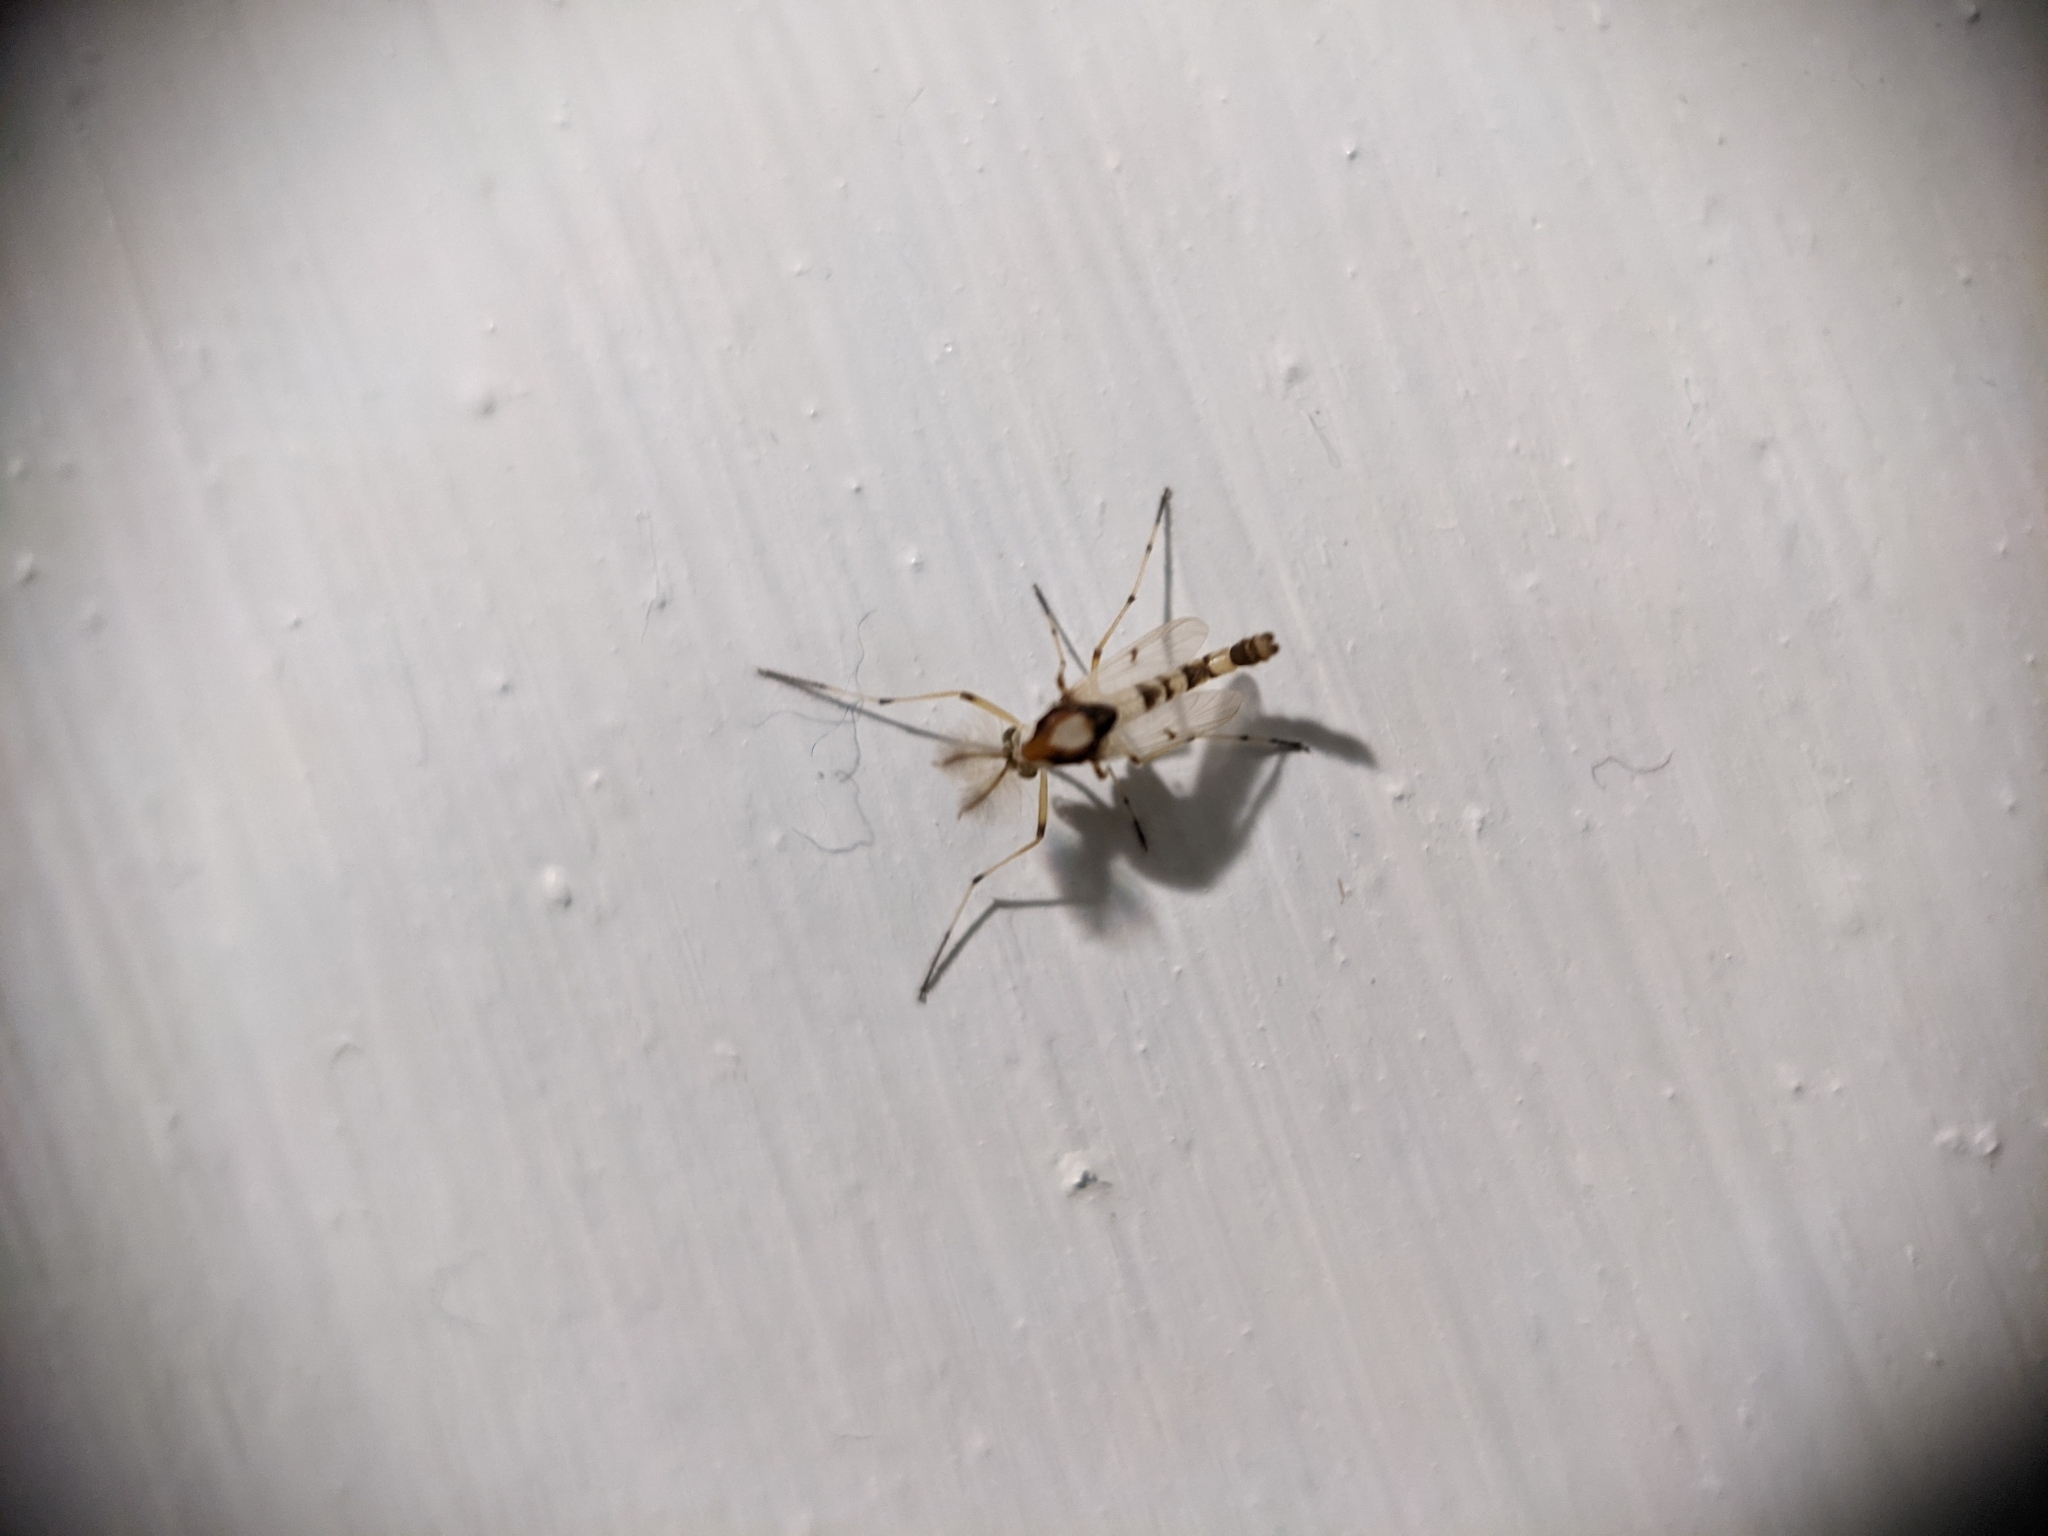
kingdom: Animalia
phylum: Arthropoda
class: Insecta
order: Diptera
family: Chironomidae
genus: Coelotanypus
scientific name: Coelotanypus tricolor
